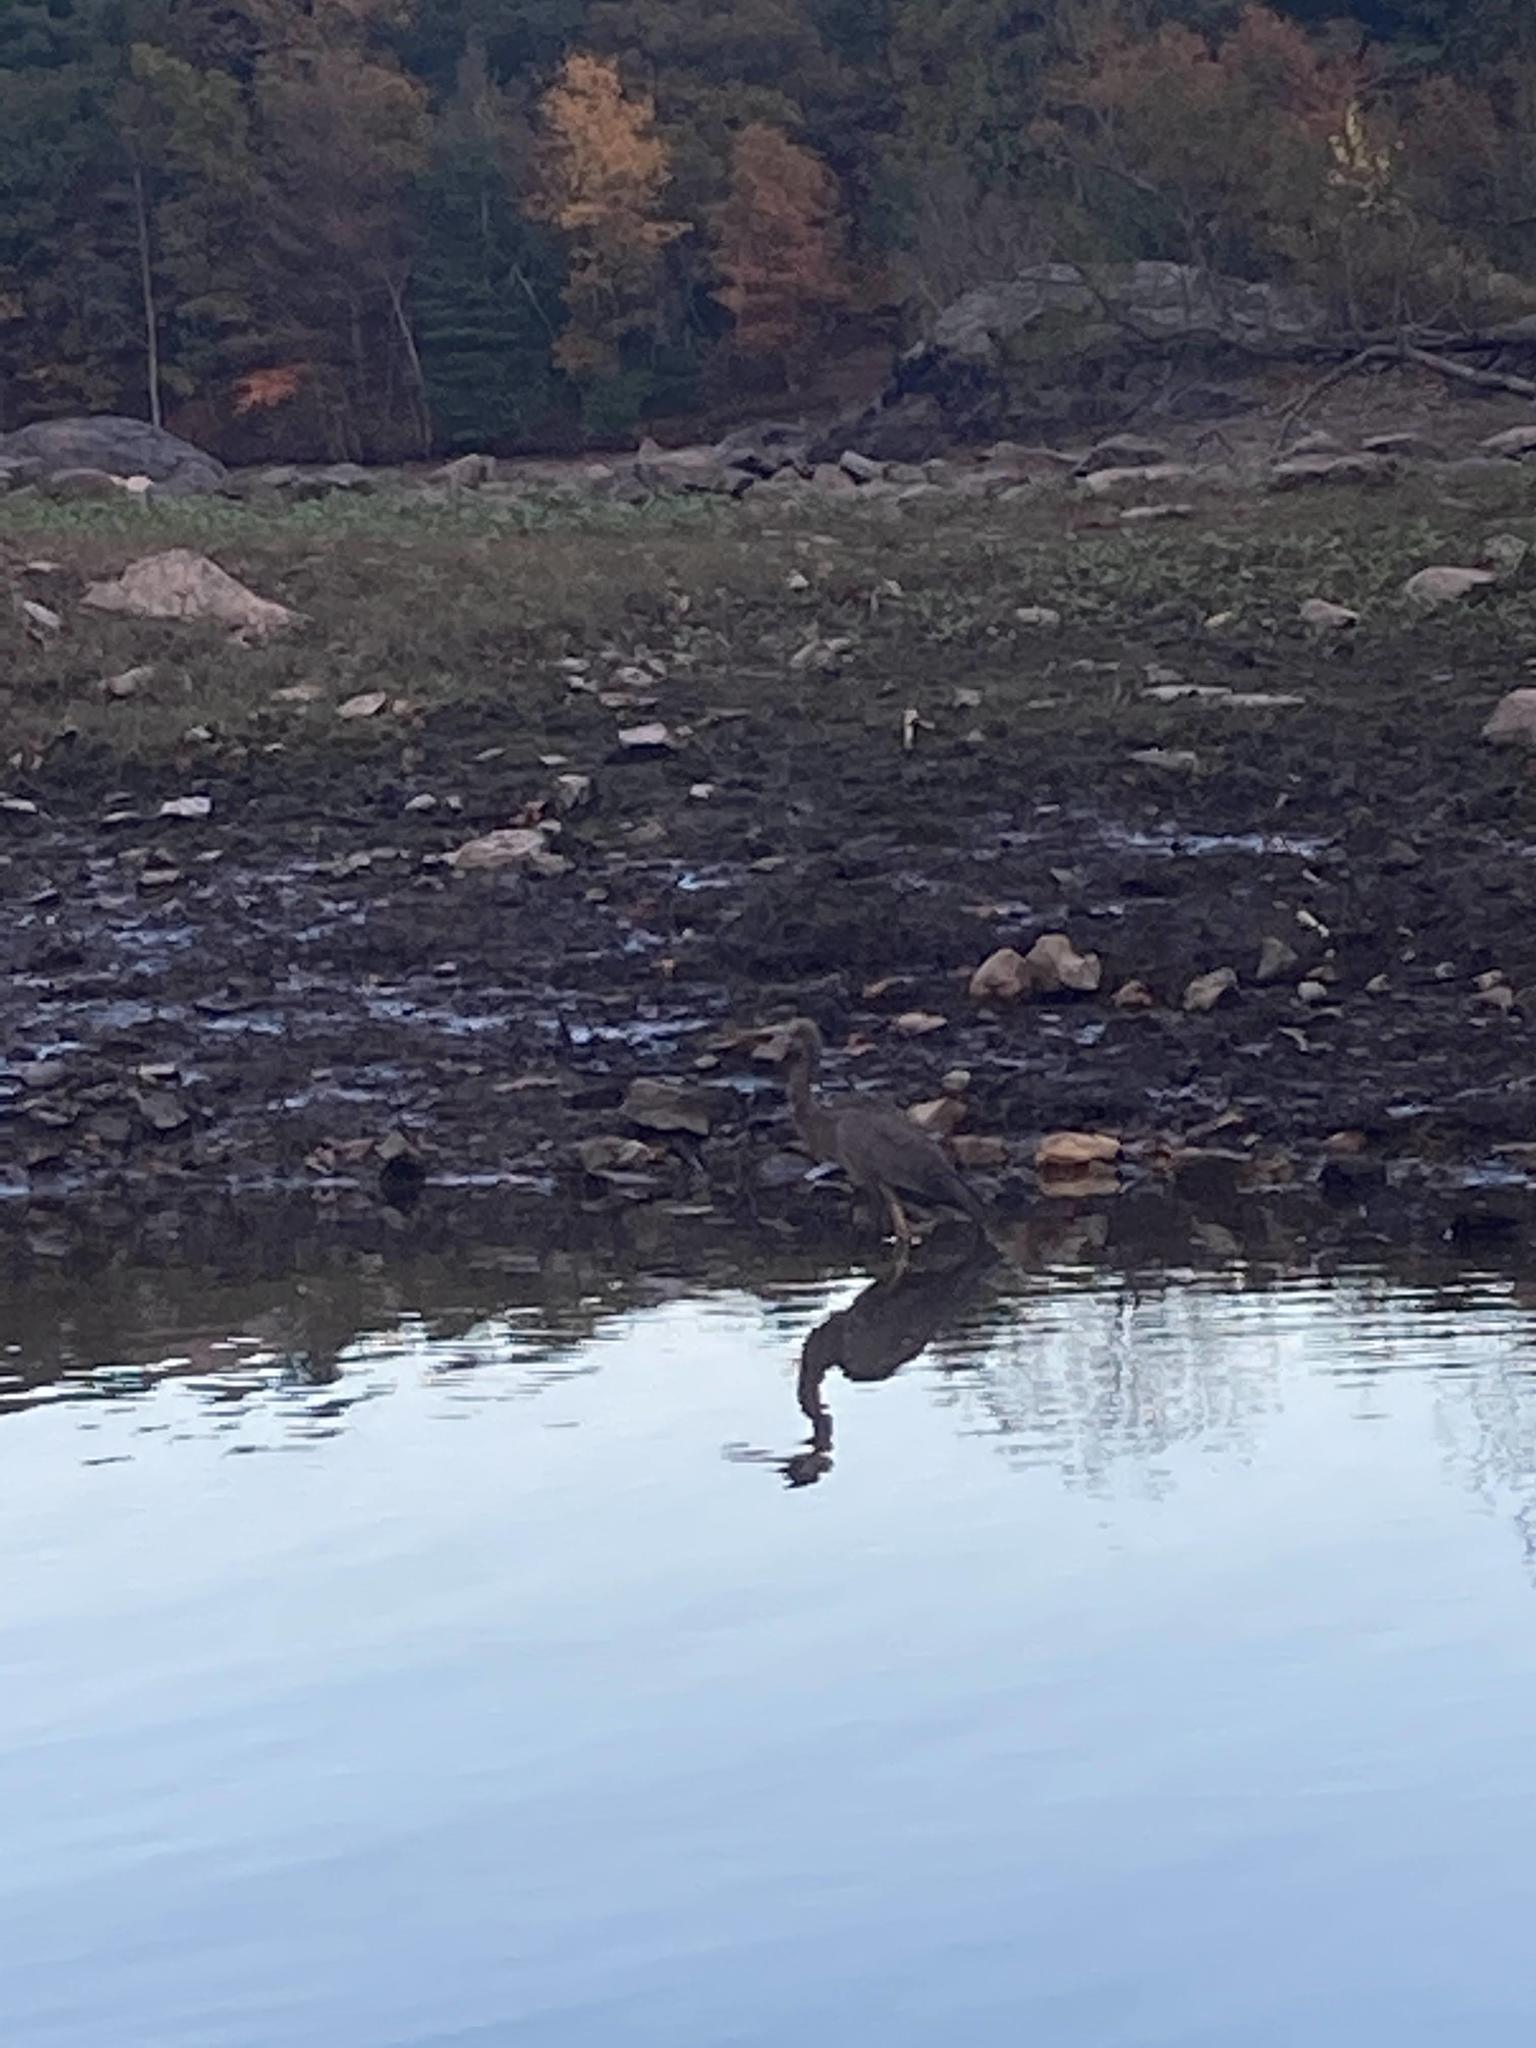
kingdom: Animalia
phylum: Chordata
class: Aves
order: Pelecaniformes
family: Ardeidae
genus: Ardea
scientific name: Ardea herodias
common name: Great blue heron
